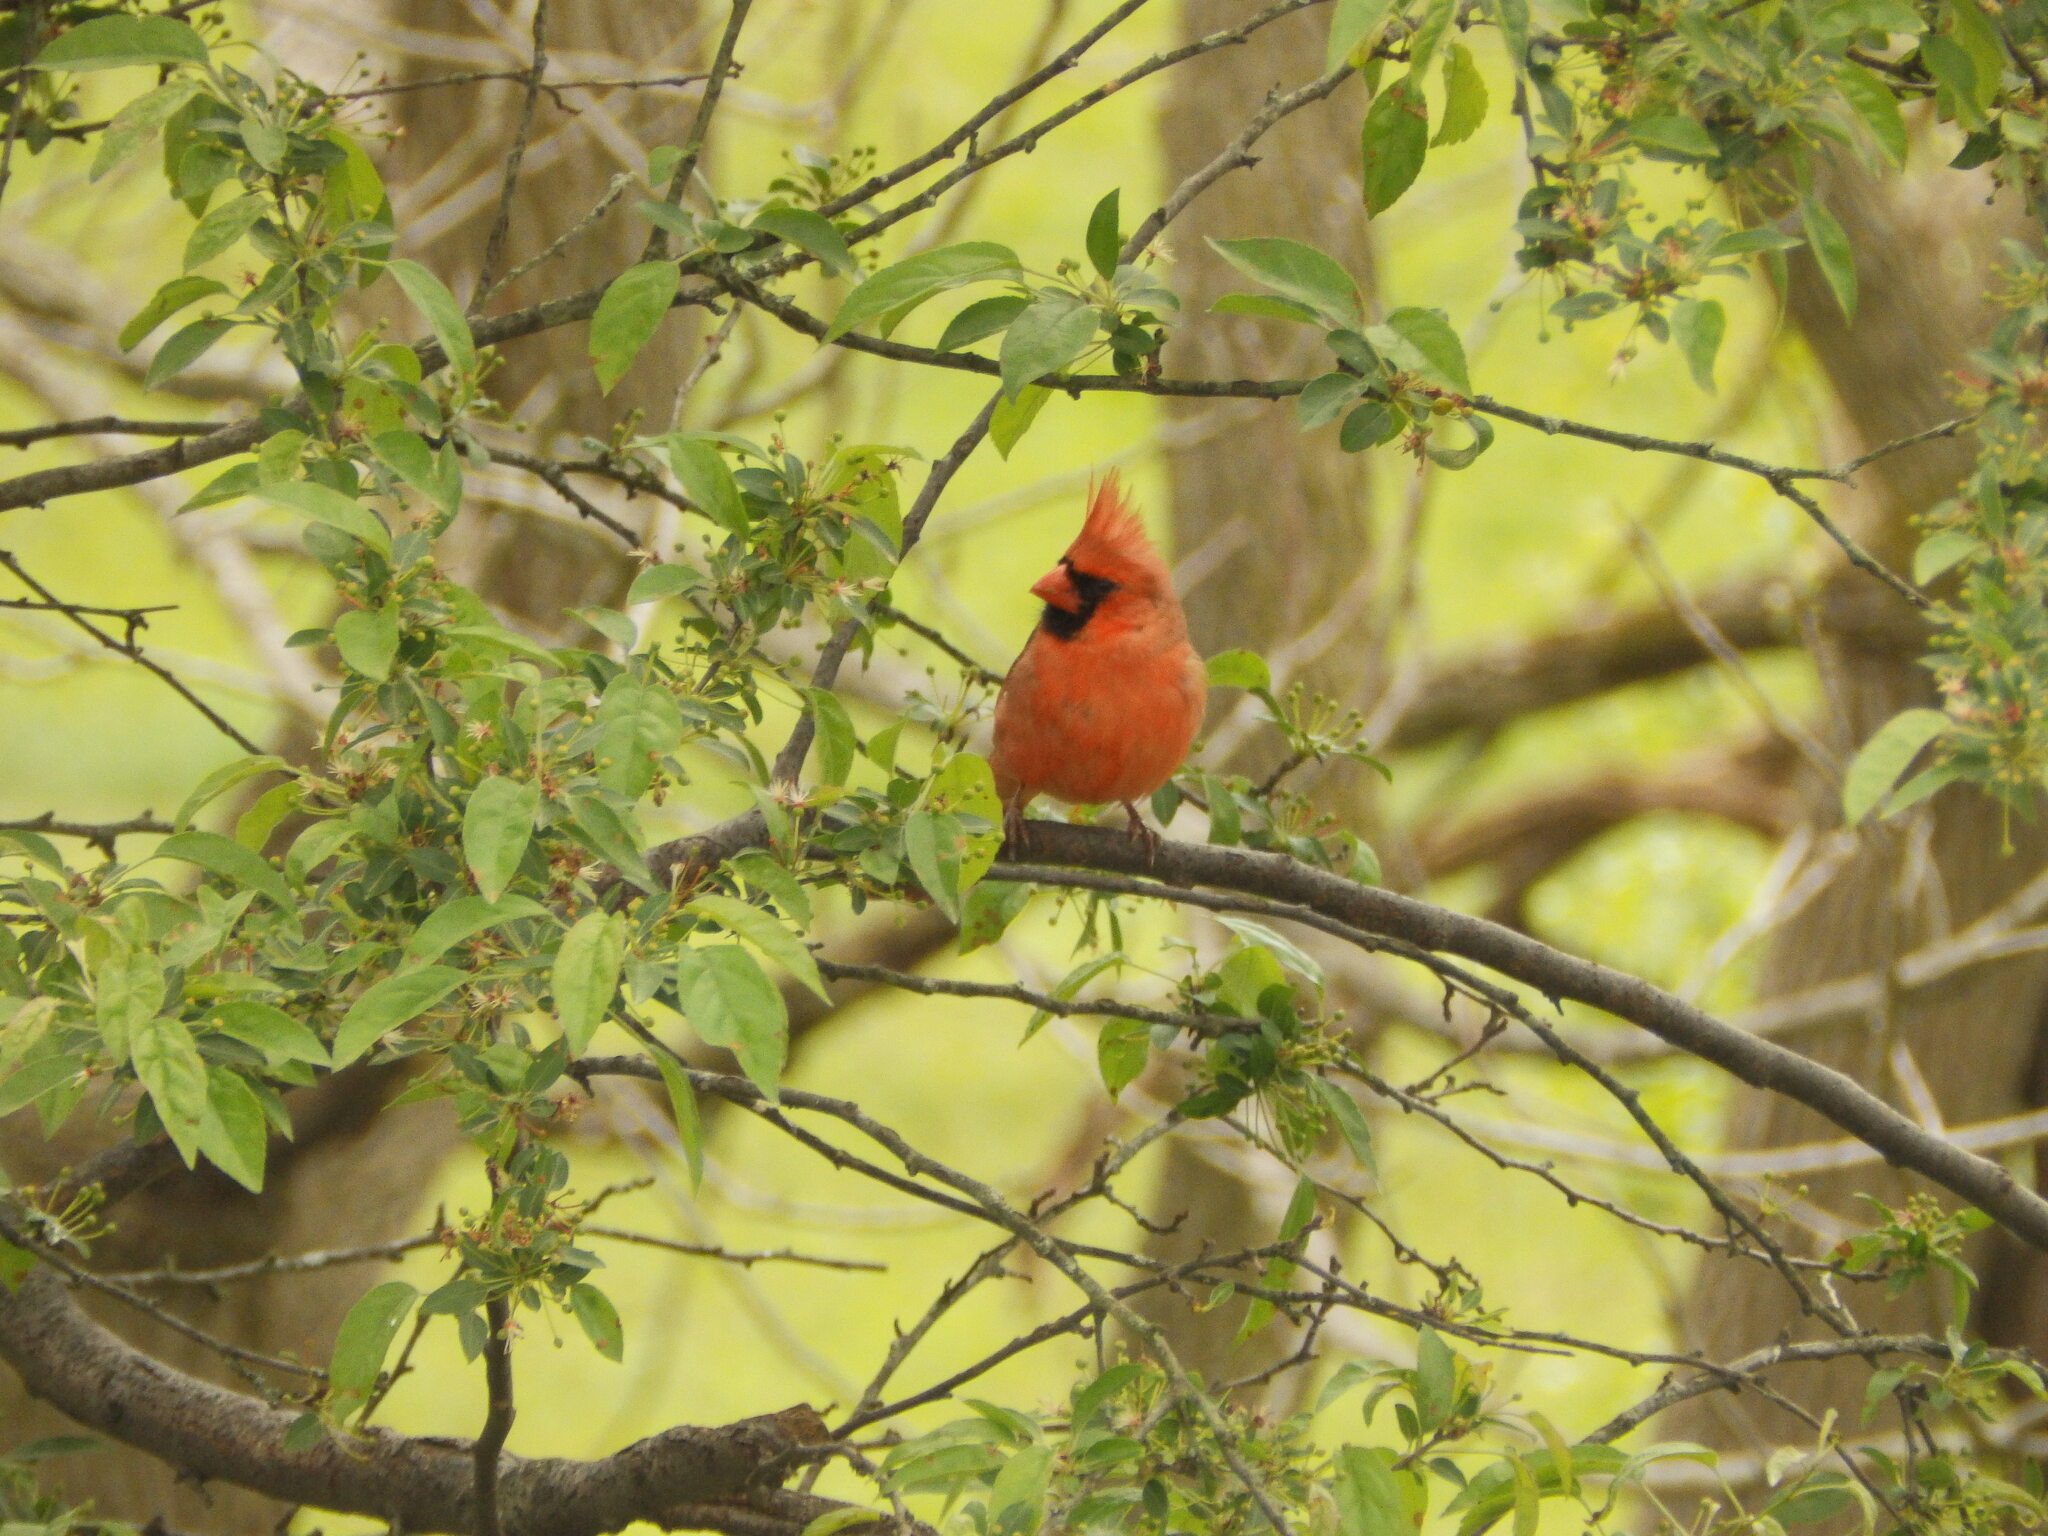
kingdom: Animalia
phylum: Chordata
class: Aves
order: Passeriformes
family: Cardinalidae
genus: Cardinalis
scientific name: Cardinalis cardinalis
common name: Northern cardinal
